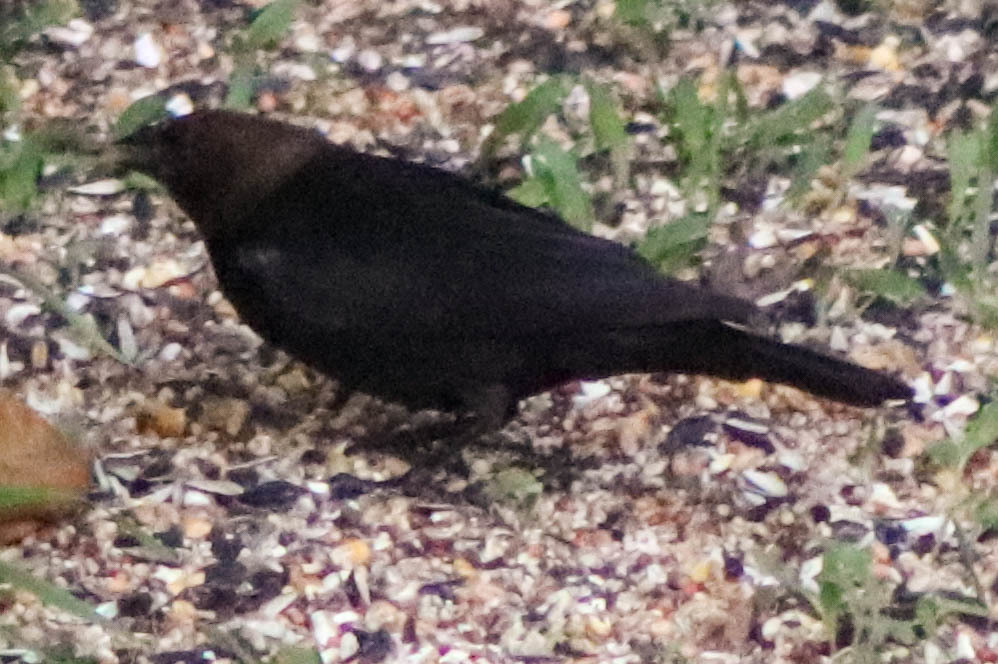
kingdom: Animalia
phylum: Chordata
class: Aves
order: Passeriformes
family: Icteridae
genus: Molothrus
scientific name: Molothrus ater
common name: Brown-headed cowbird
